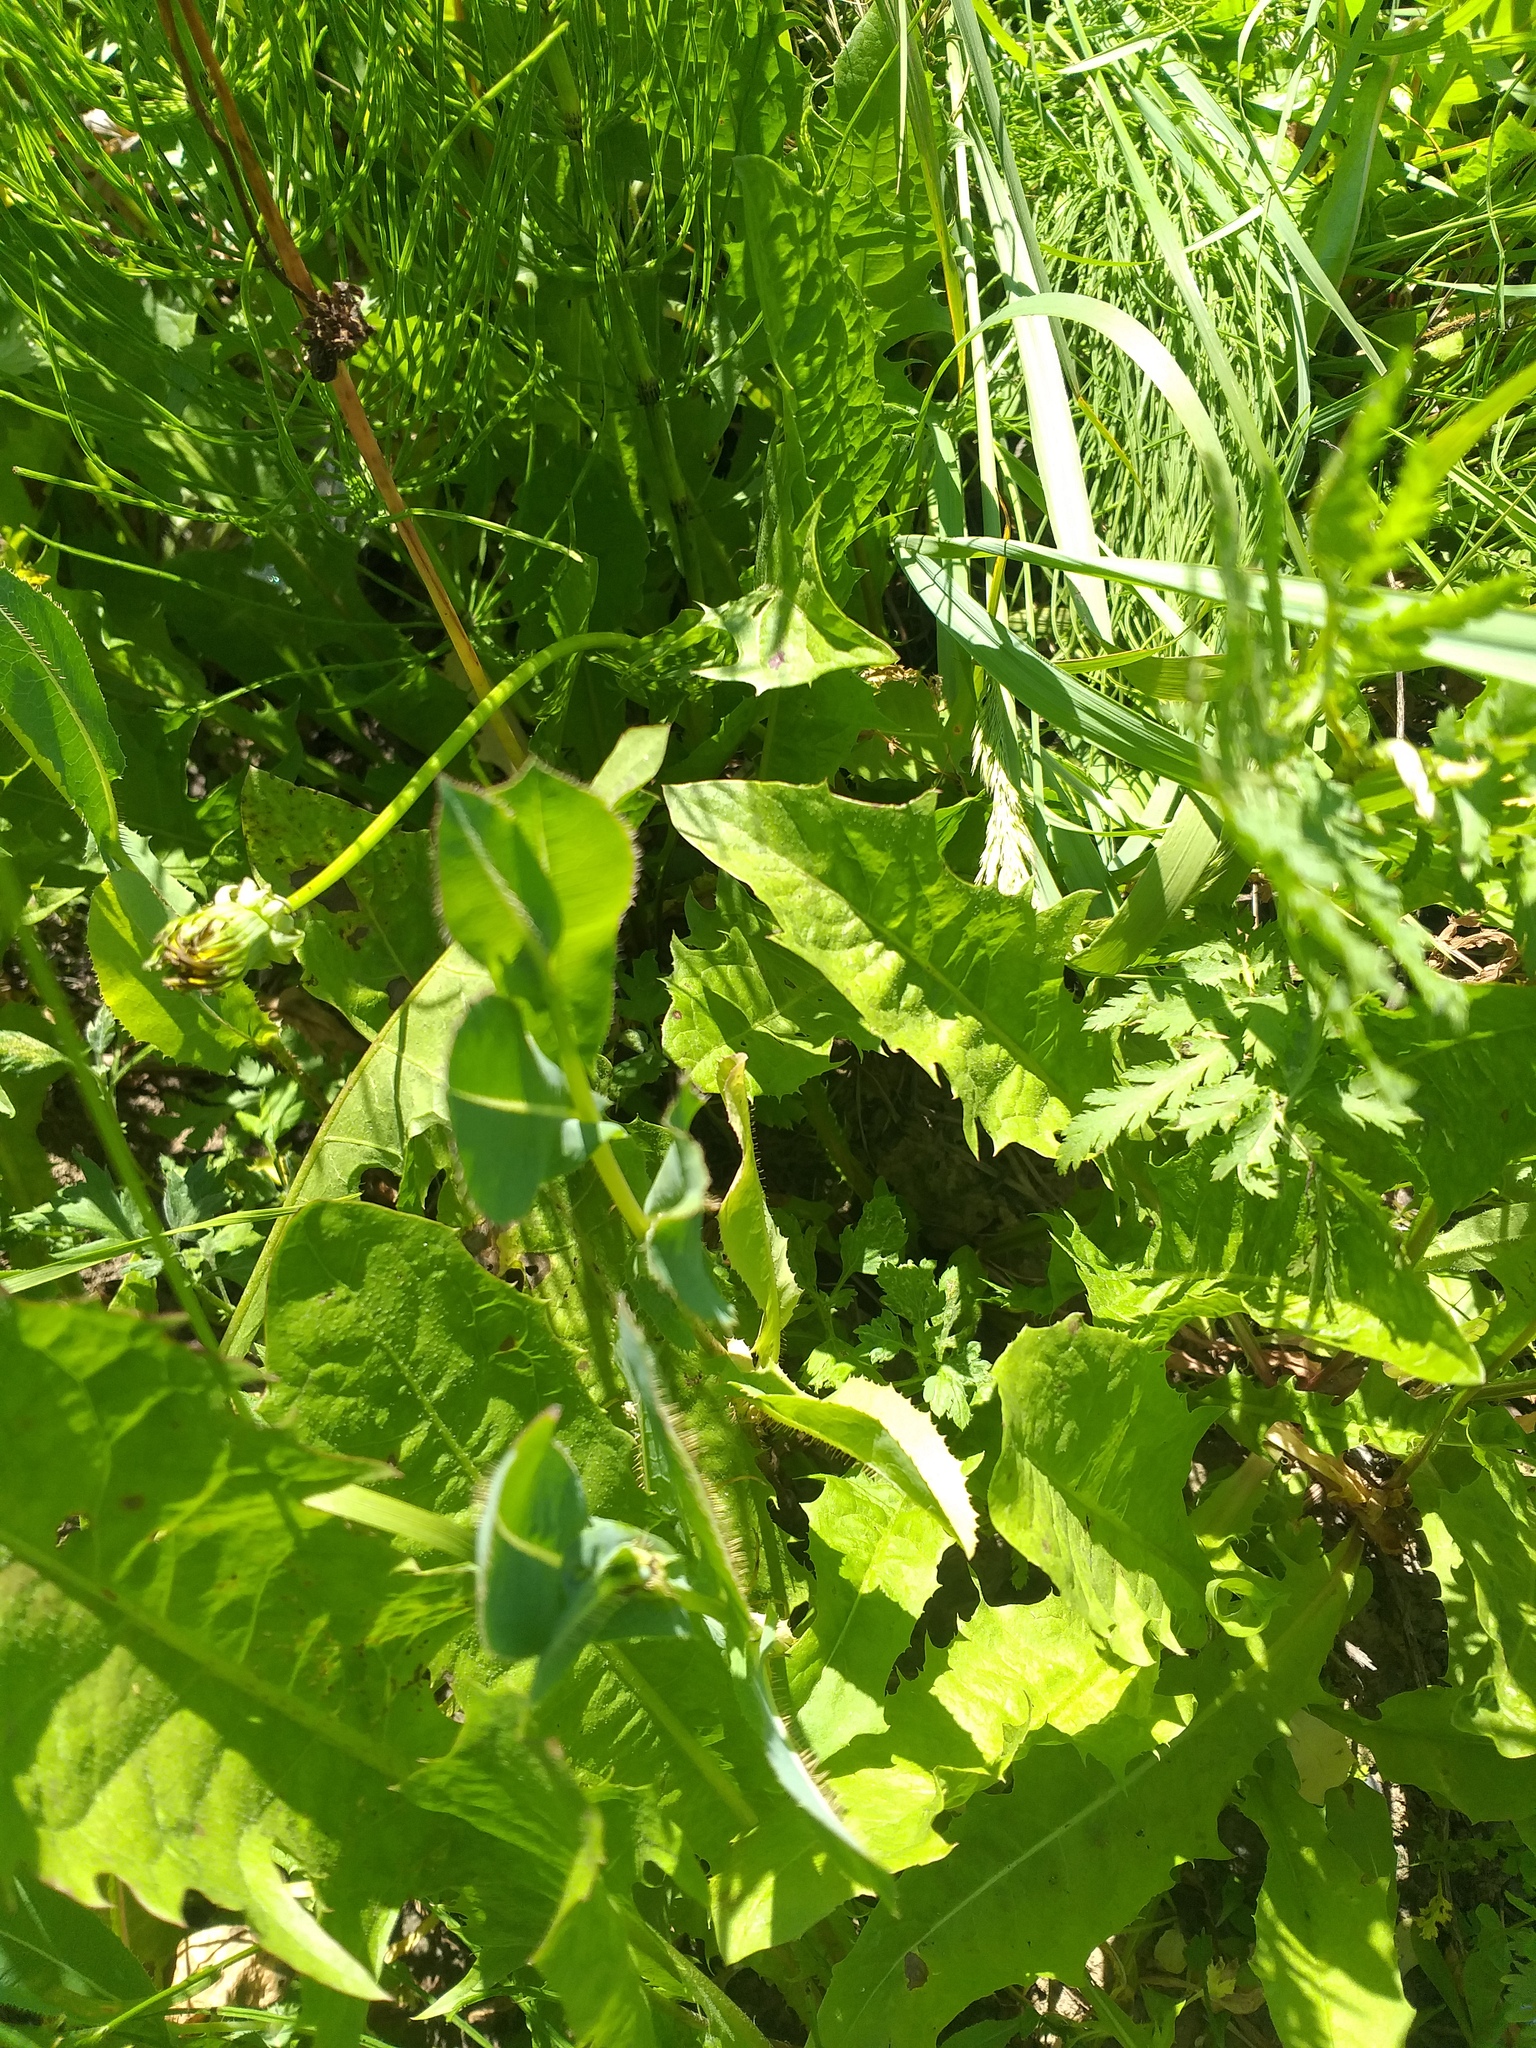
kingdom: Plantae
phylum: Tracheophyta
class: Magnoliopsida
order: Asterales
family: Asteraceae
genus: Lactuca
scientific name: Lactuca serriola
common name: Prickly lettuce
